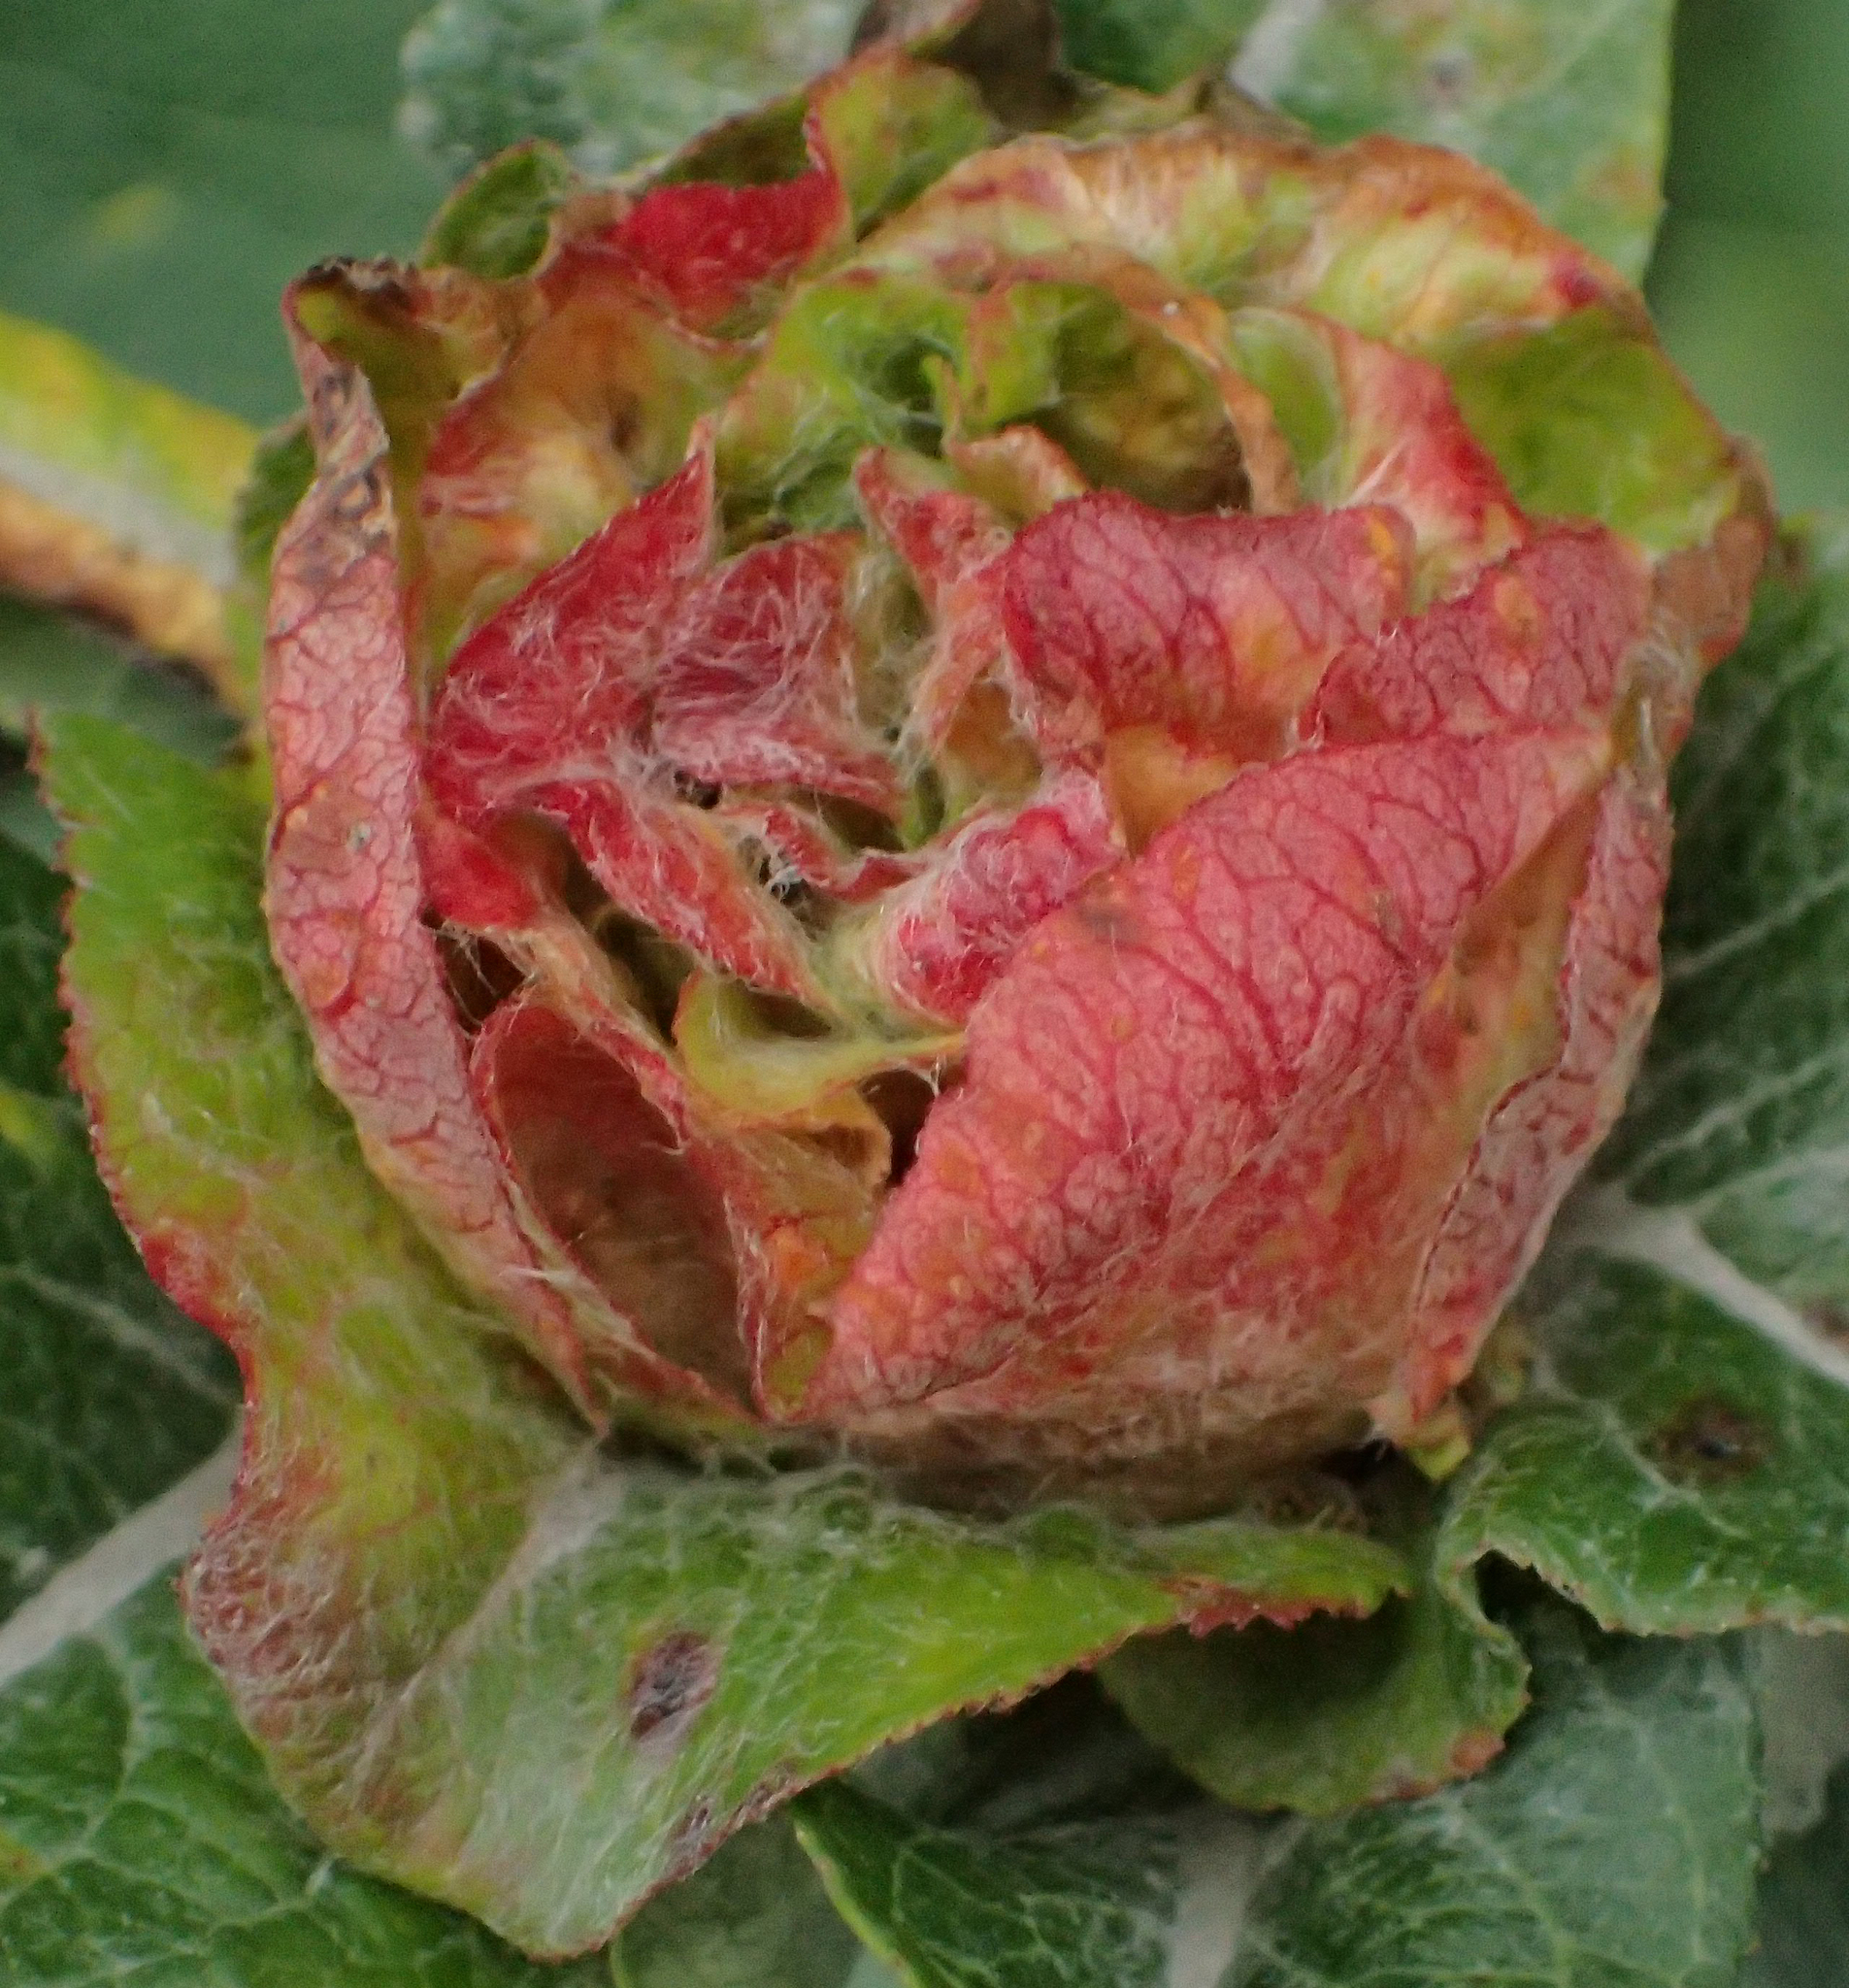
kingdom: Animalia
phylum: Arthropoda
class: Insecta
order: Diptera
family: Cecidomyiidae
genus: Rabdophaga
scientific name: Rabdophaga rosaria
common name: Willow rose gall midge
